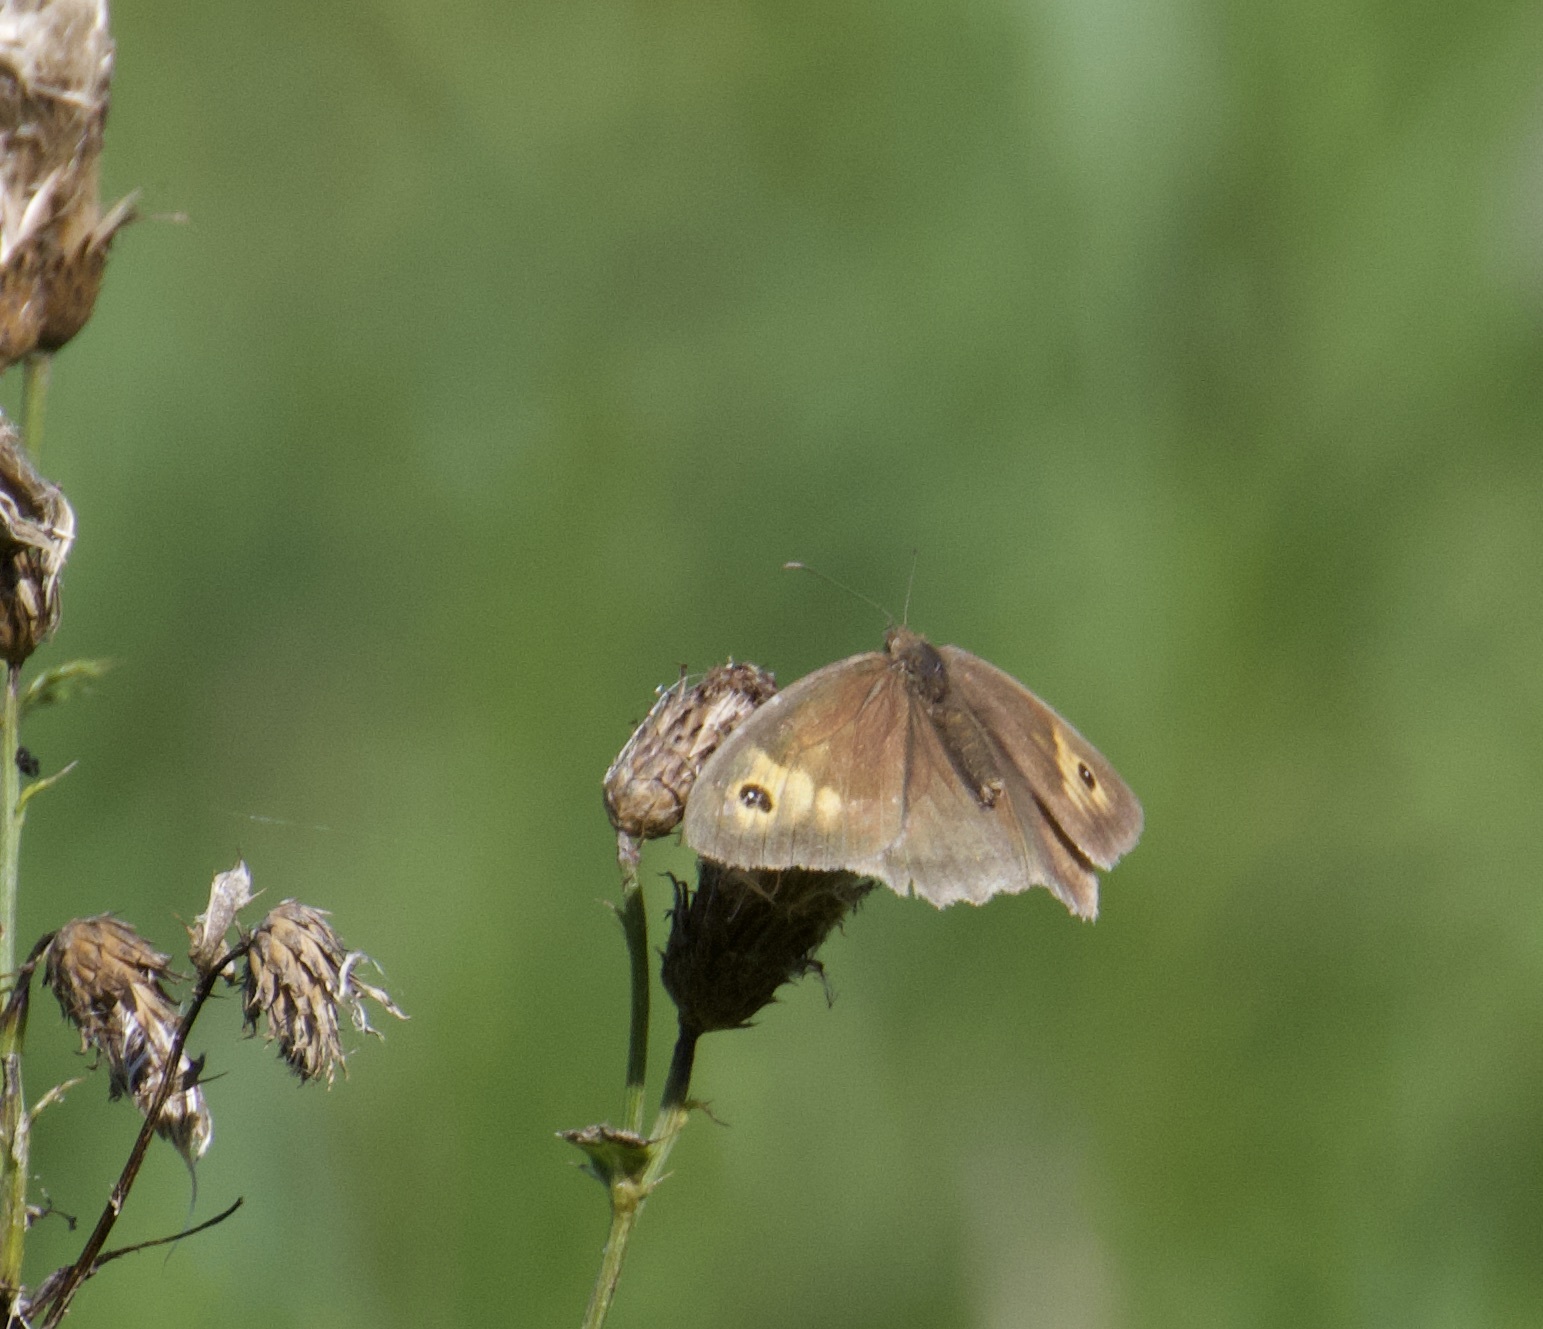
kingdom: Animalia
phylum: Arthropoda
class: Insecta
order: Lepidoptera
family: Nymphalidae
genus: Maniola
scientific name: Maniola jurtina
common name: Meadow brown
